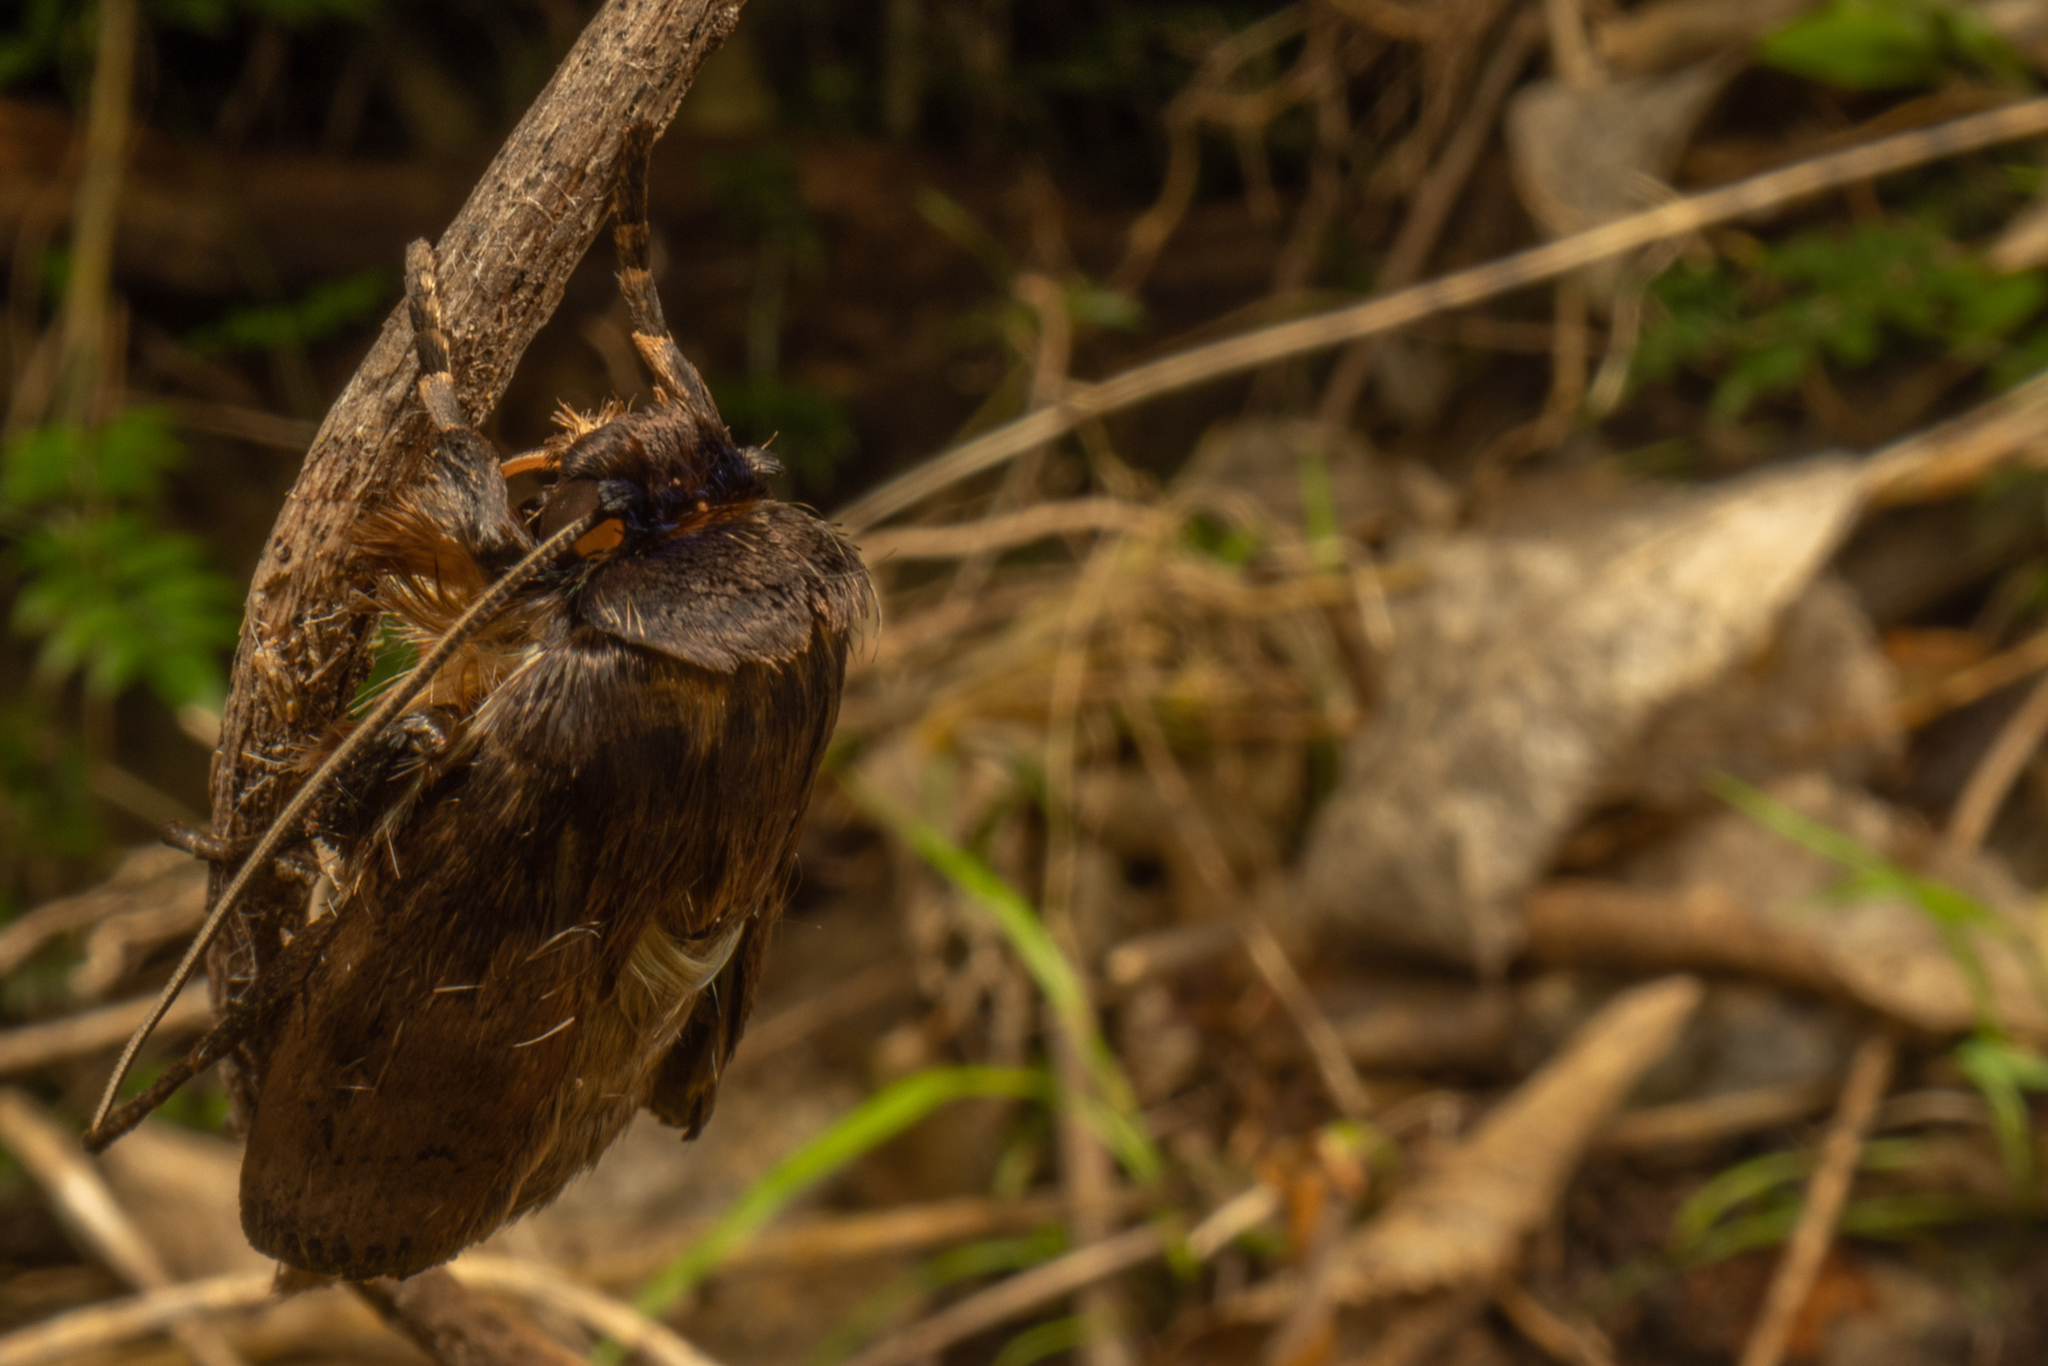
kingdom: Animalia
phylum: Arthropoda
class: Insecta
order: Lepidoptera
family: Noctuidae
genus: Bityla
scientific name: Bityla defigurata
